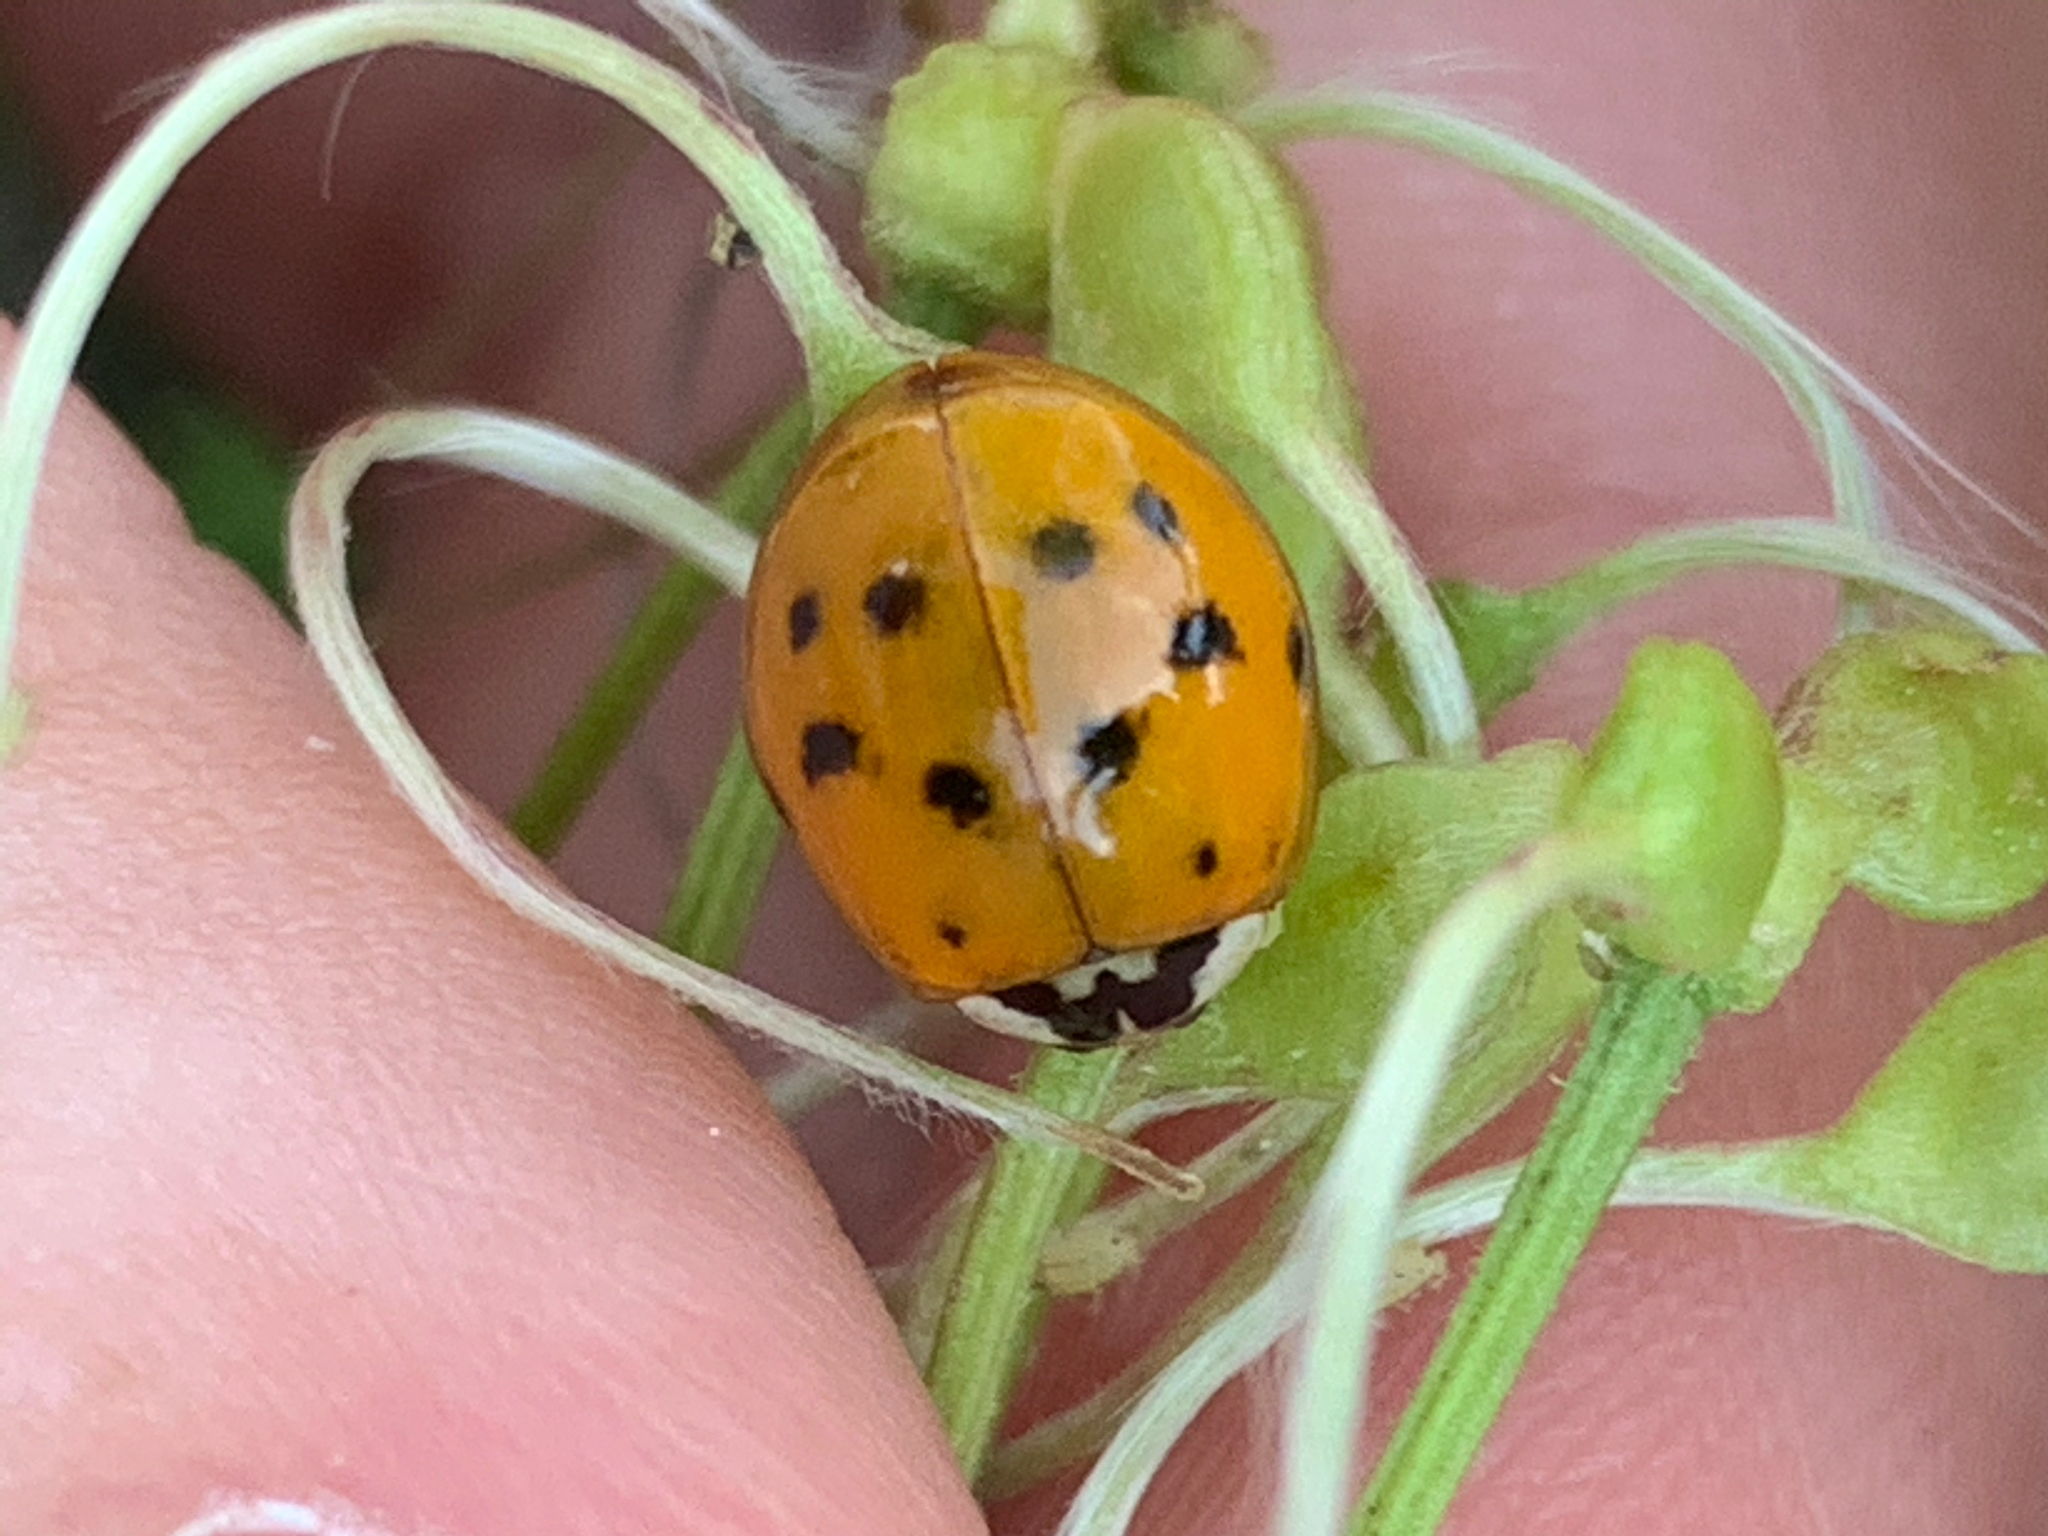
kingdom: Animalia
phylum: Arthropoda
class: Insecta
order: Coleoptera
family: Coccinellidae
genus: Harmonia
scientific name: Harmonia axyridis
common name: Harlequin ladybird
